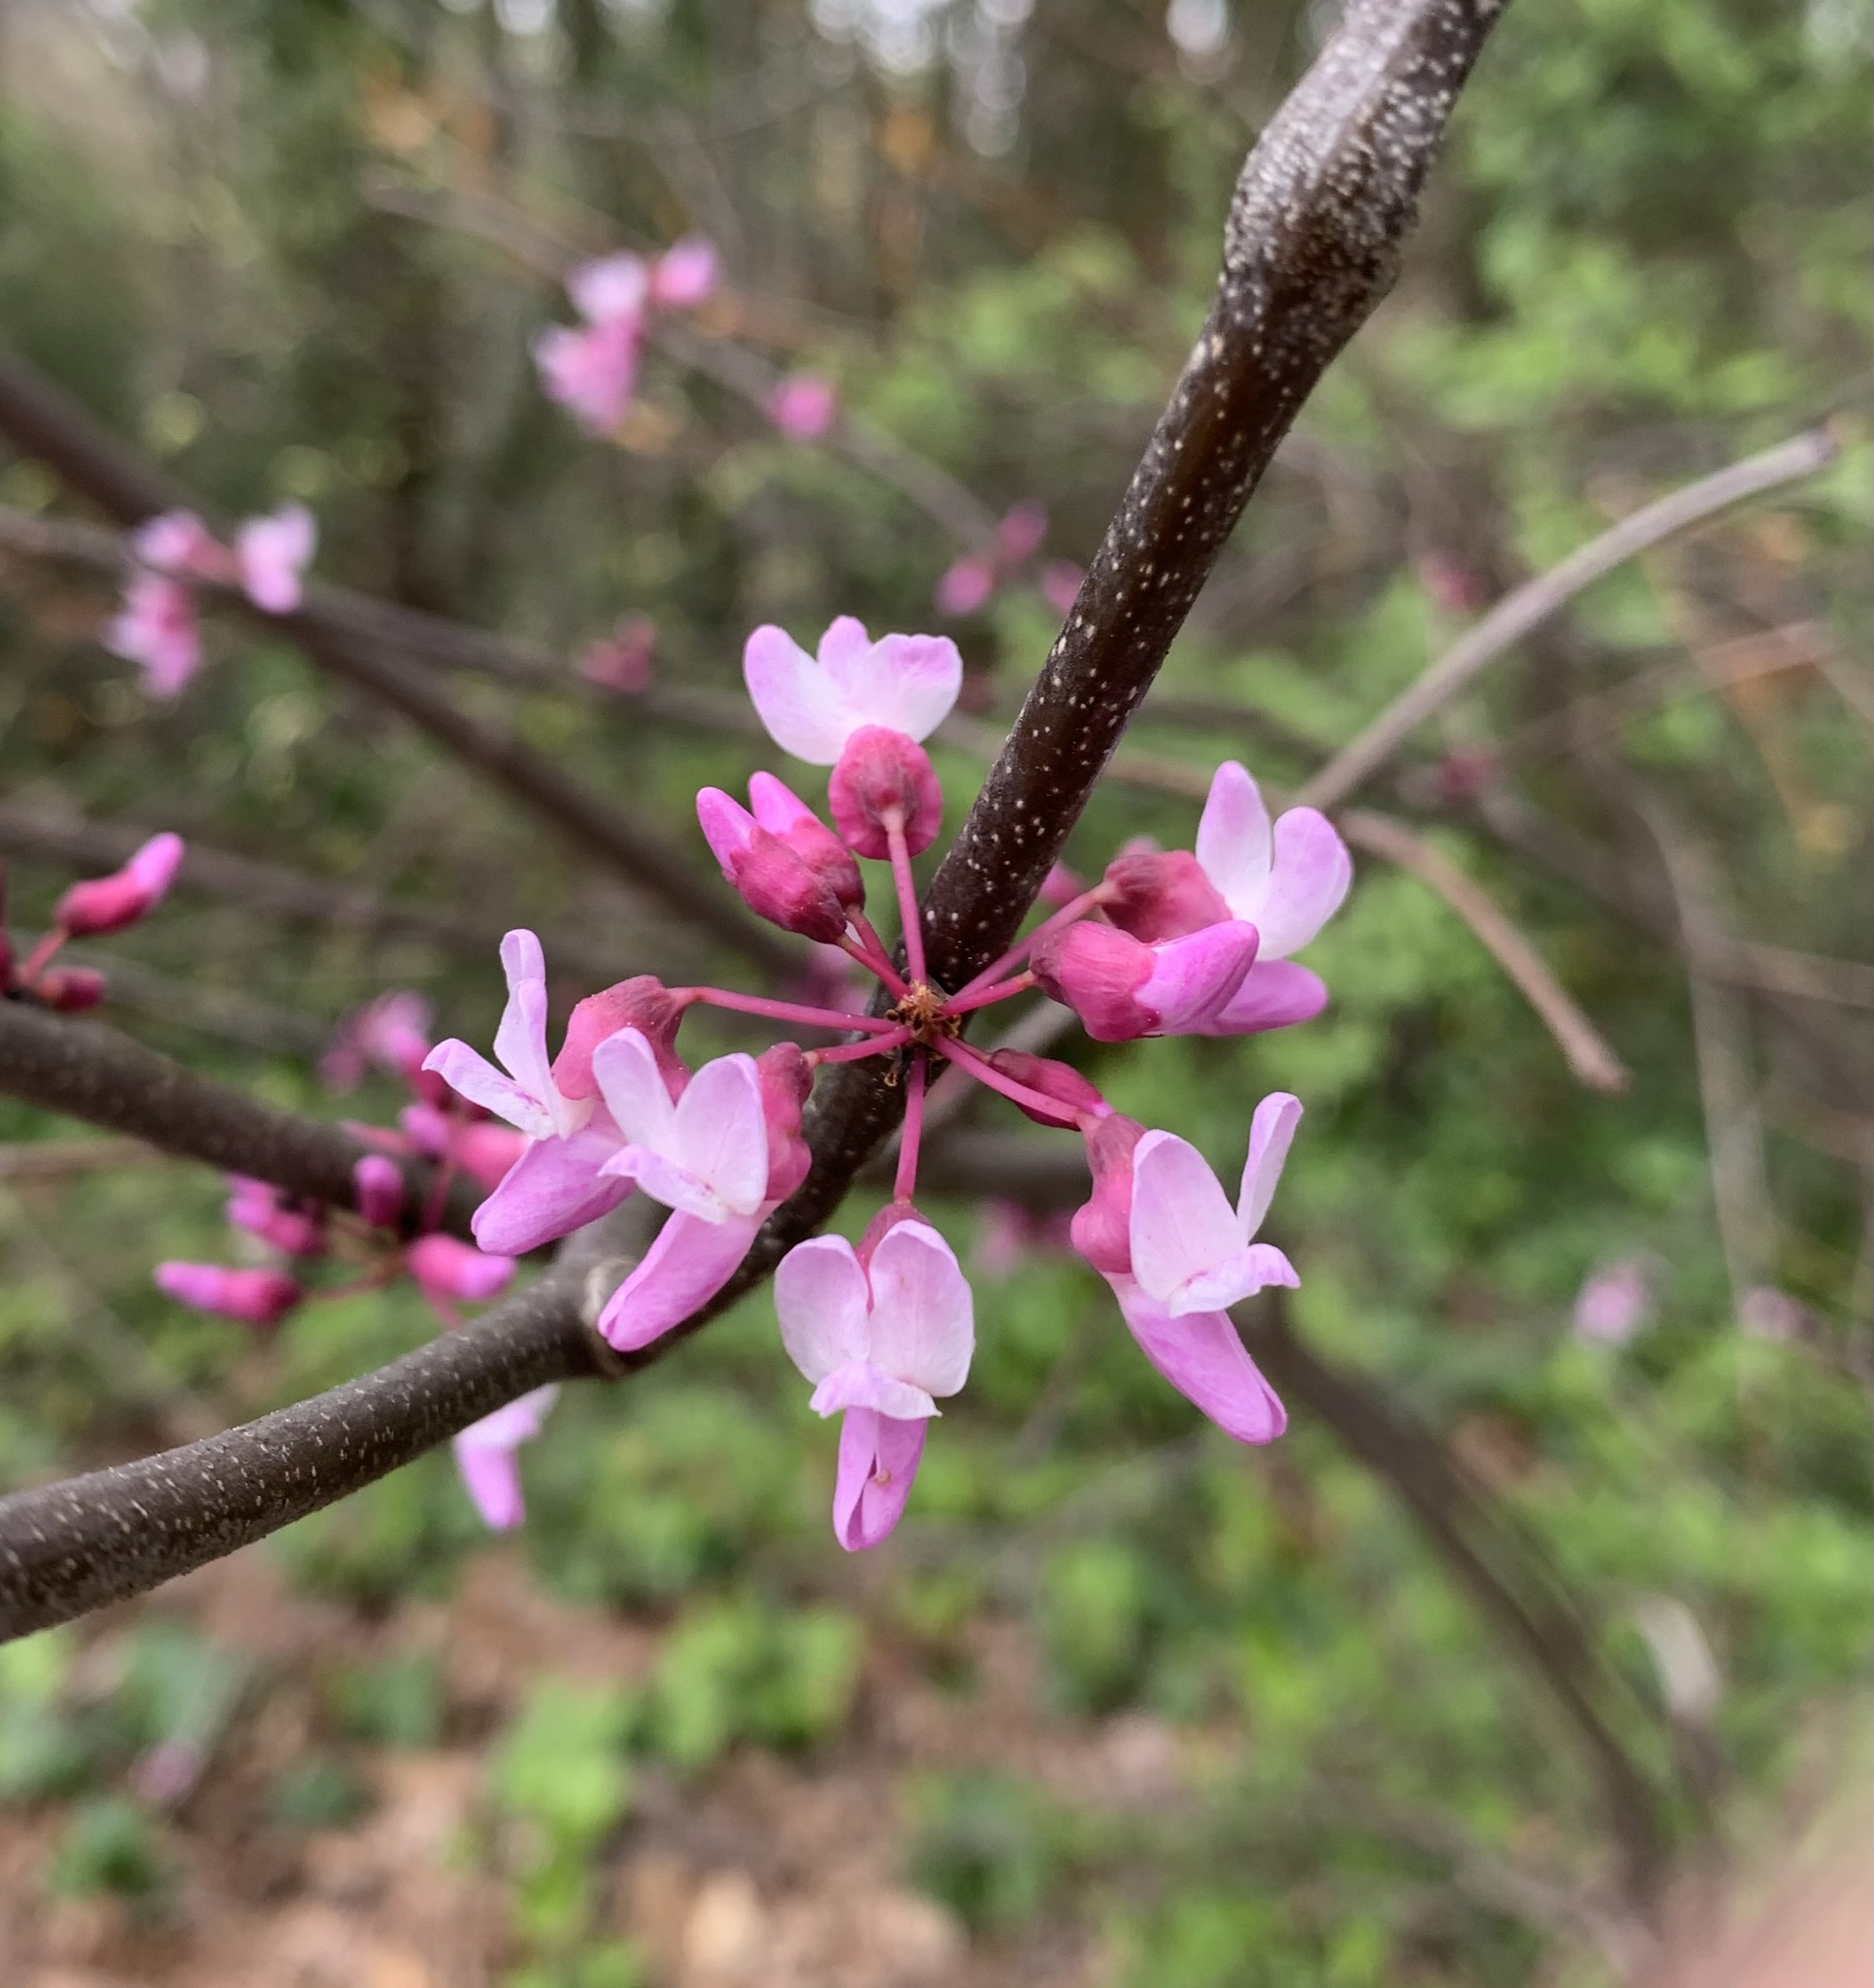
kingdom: Plantae
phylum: Tracheophyta
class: Magnoliopsida
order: Fabales
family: Fabaceae
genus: Cercis
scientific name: Cercis canadensis
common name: Eastern redbud
